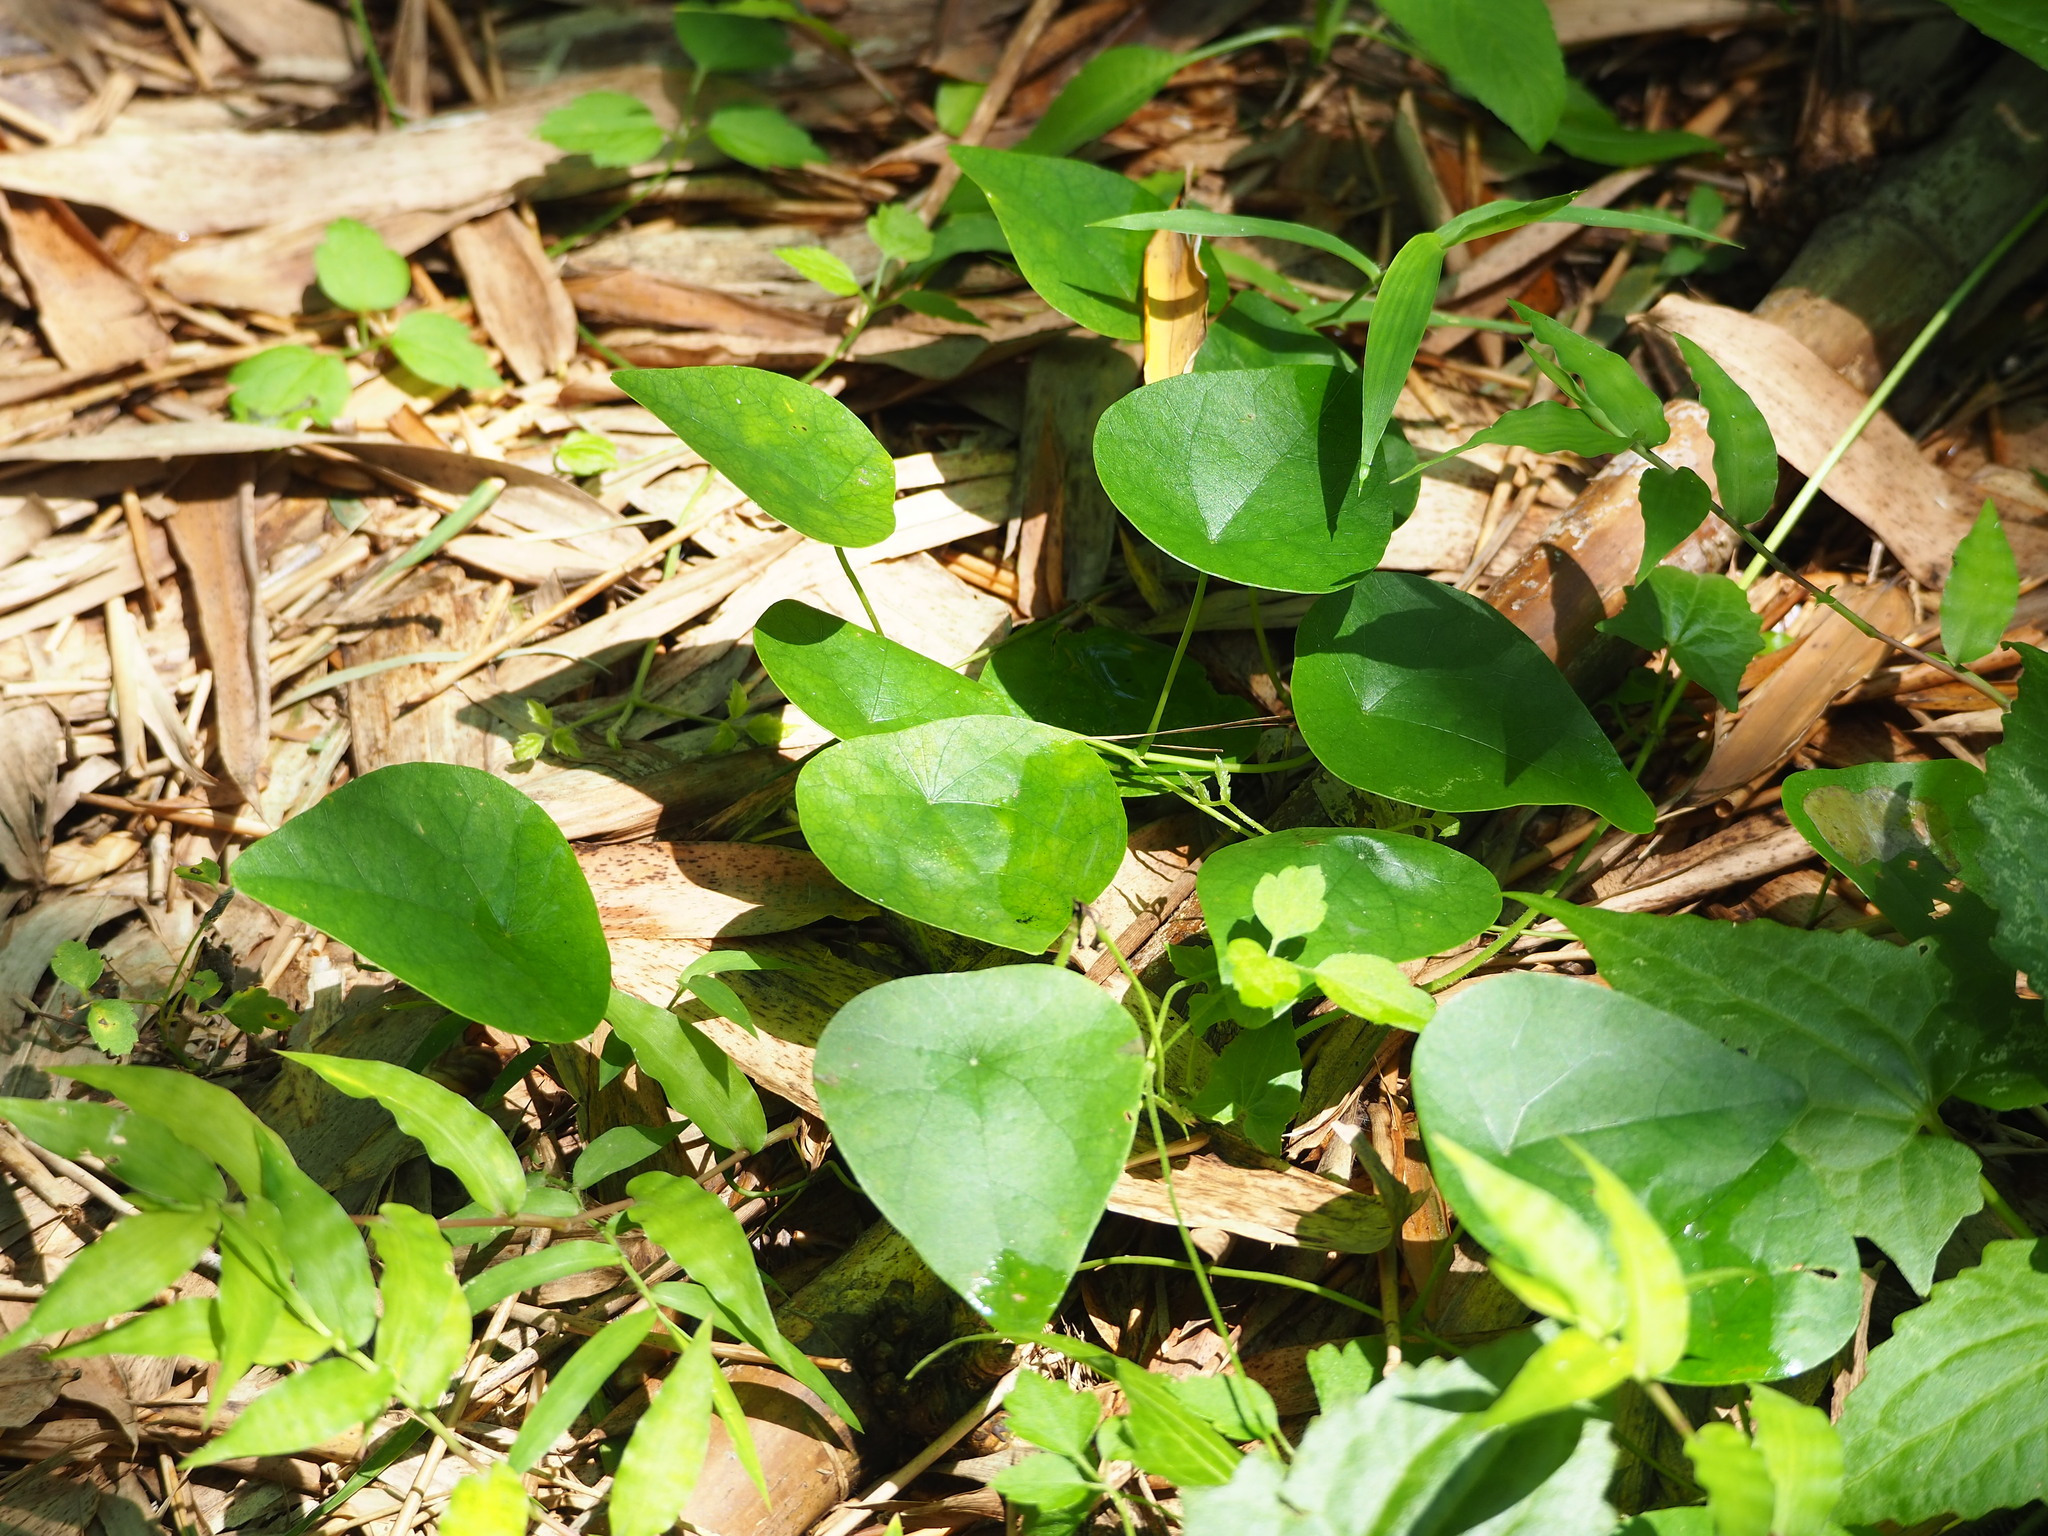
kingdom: Plantae
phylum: Tracheophyta
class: Magnoliopsida
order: Ranunculales
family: Menispermaceae
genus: Stephania
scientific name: Stephania japonica
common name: Snake vine
